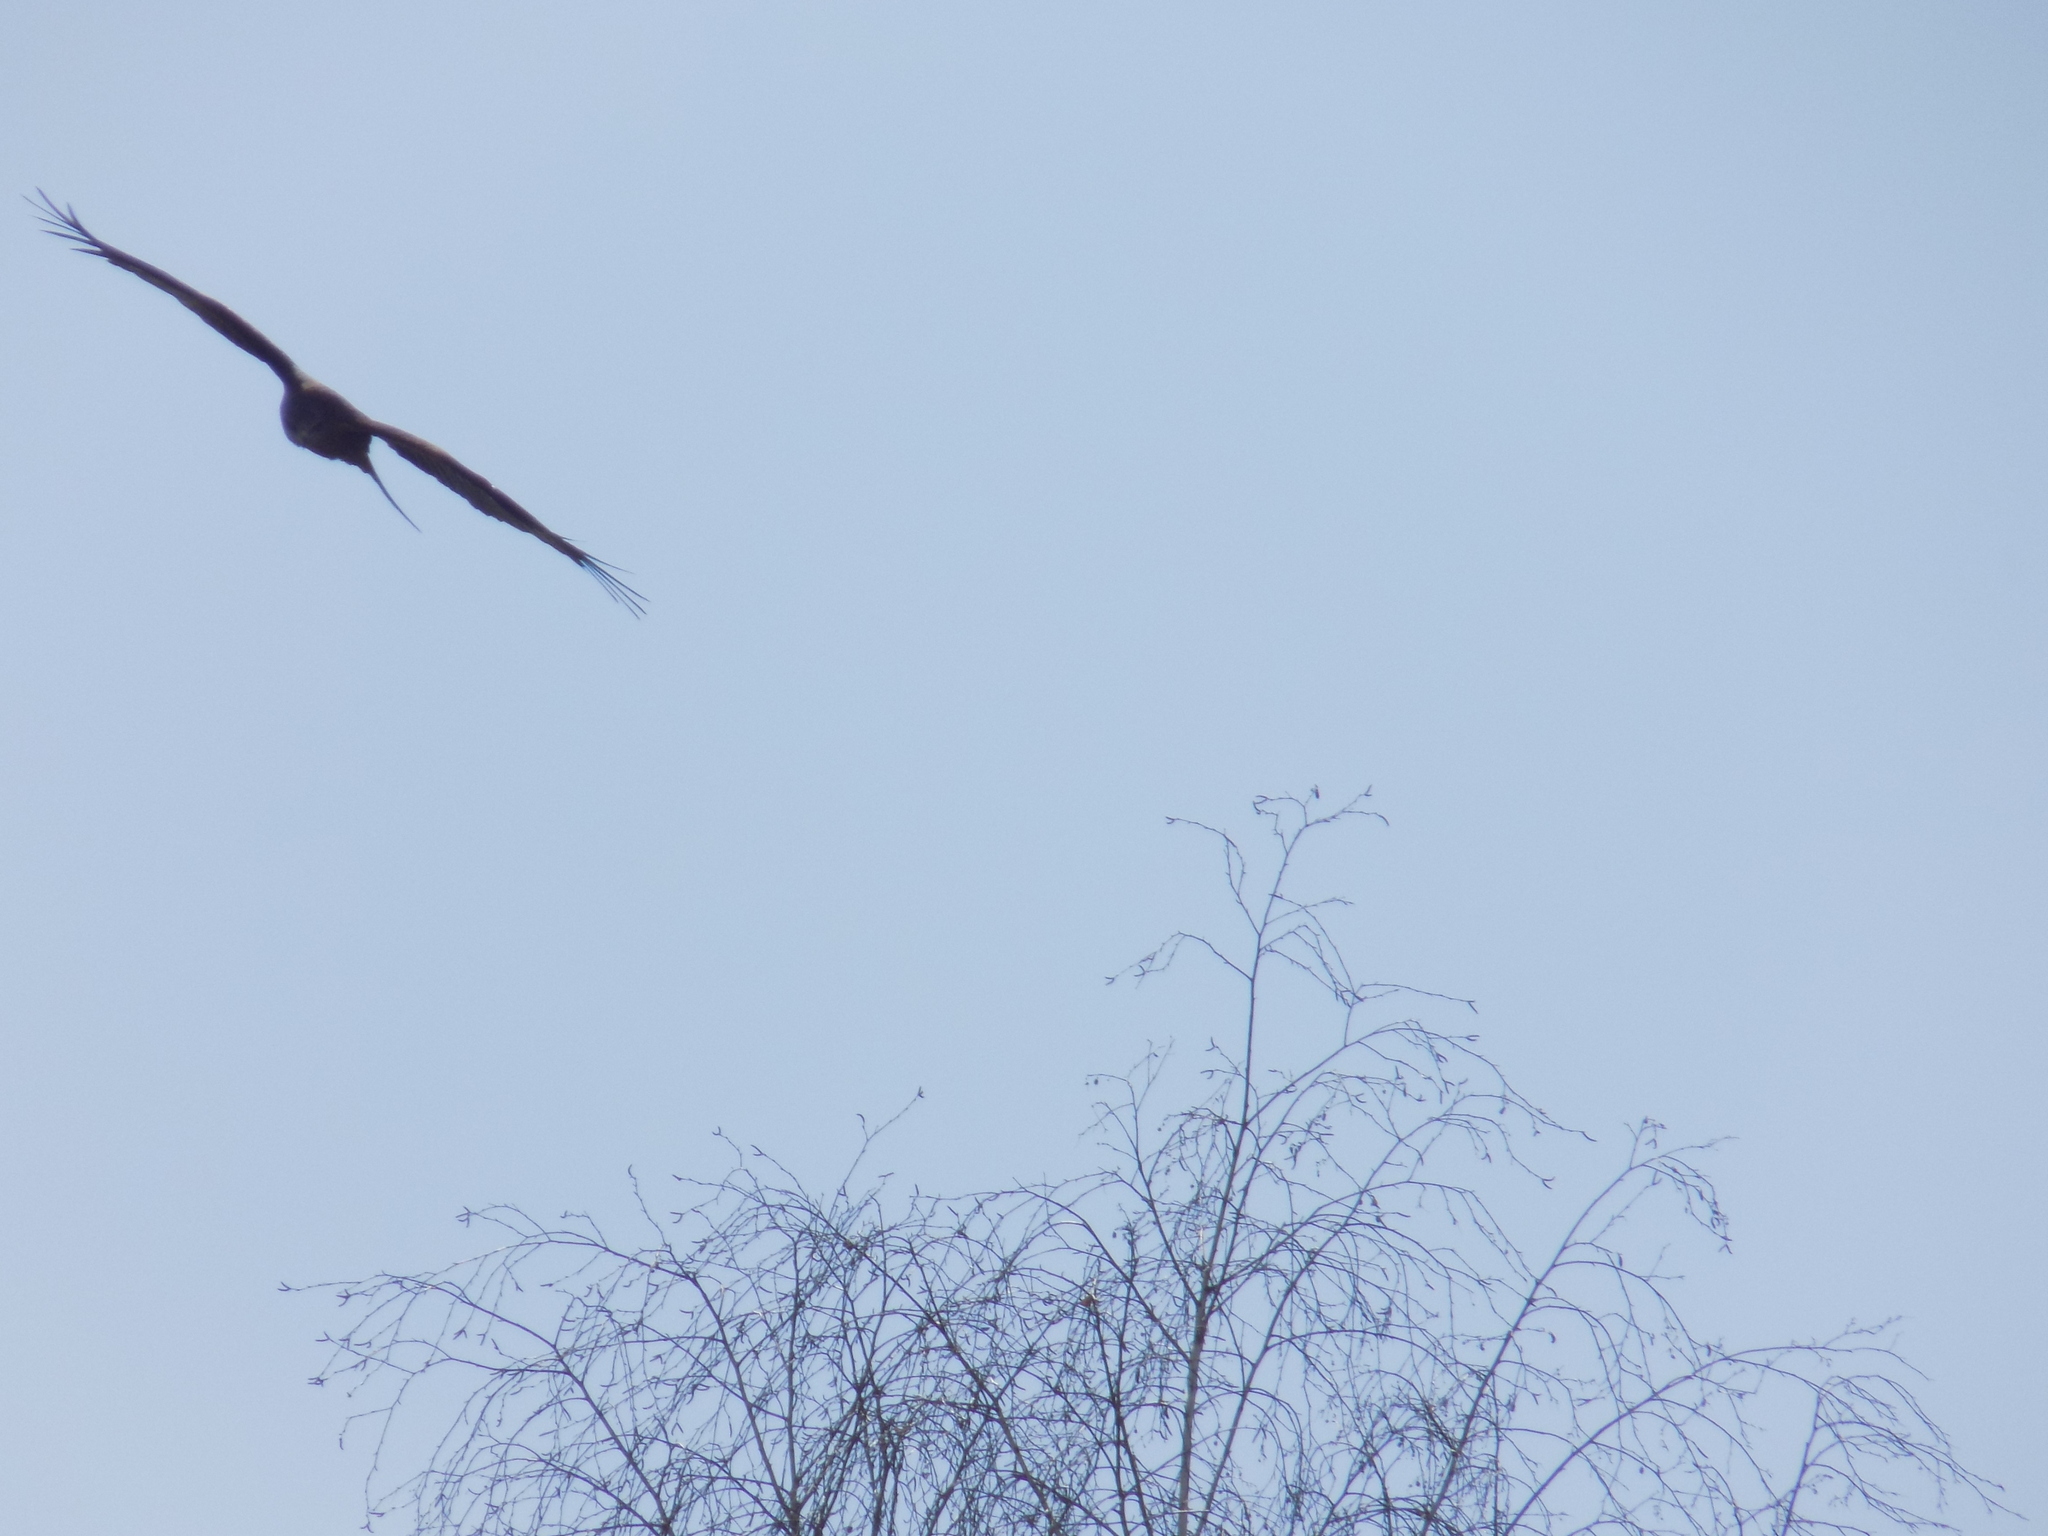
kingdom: Animalia
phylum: Chordata
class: Aves
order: Accipitriformes
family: Accipitridae
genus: Milvus
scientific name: Milvus migrans
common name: Black kite
